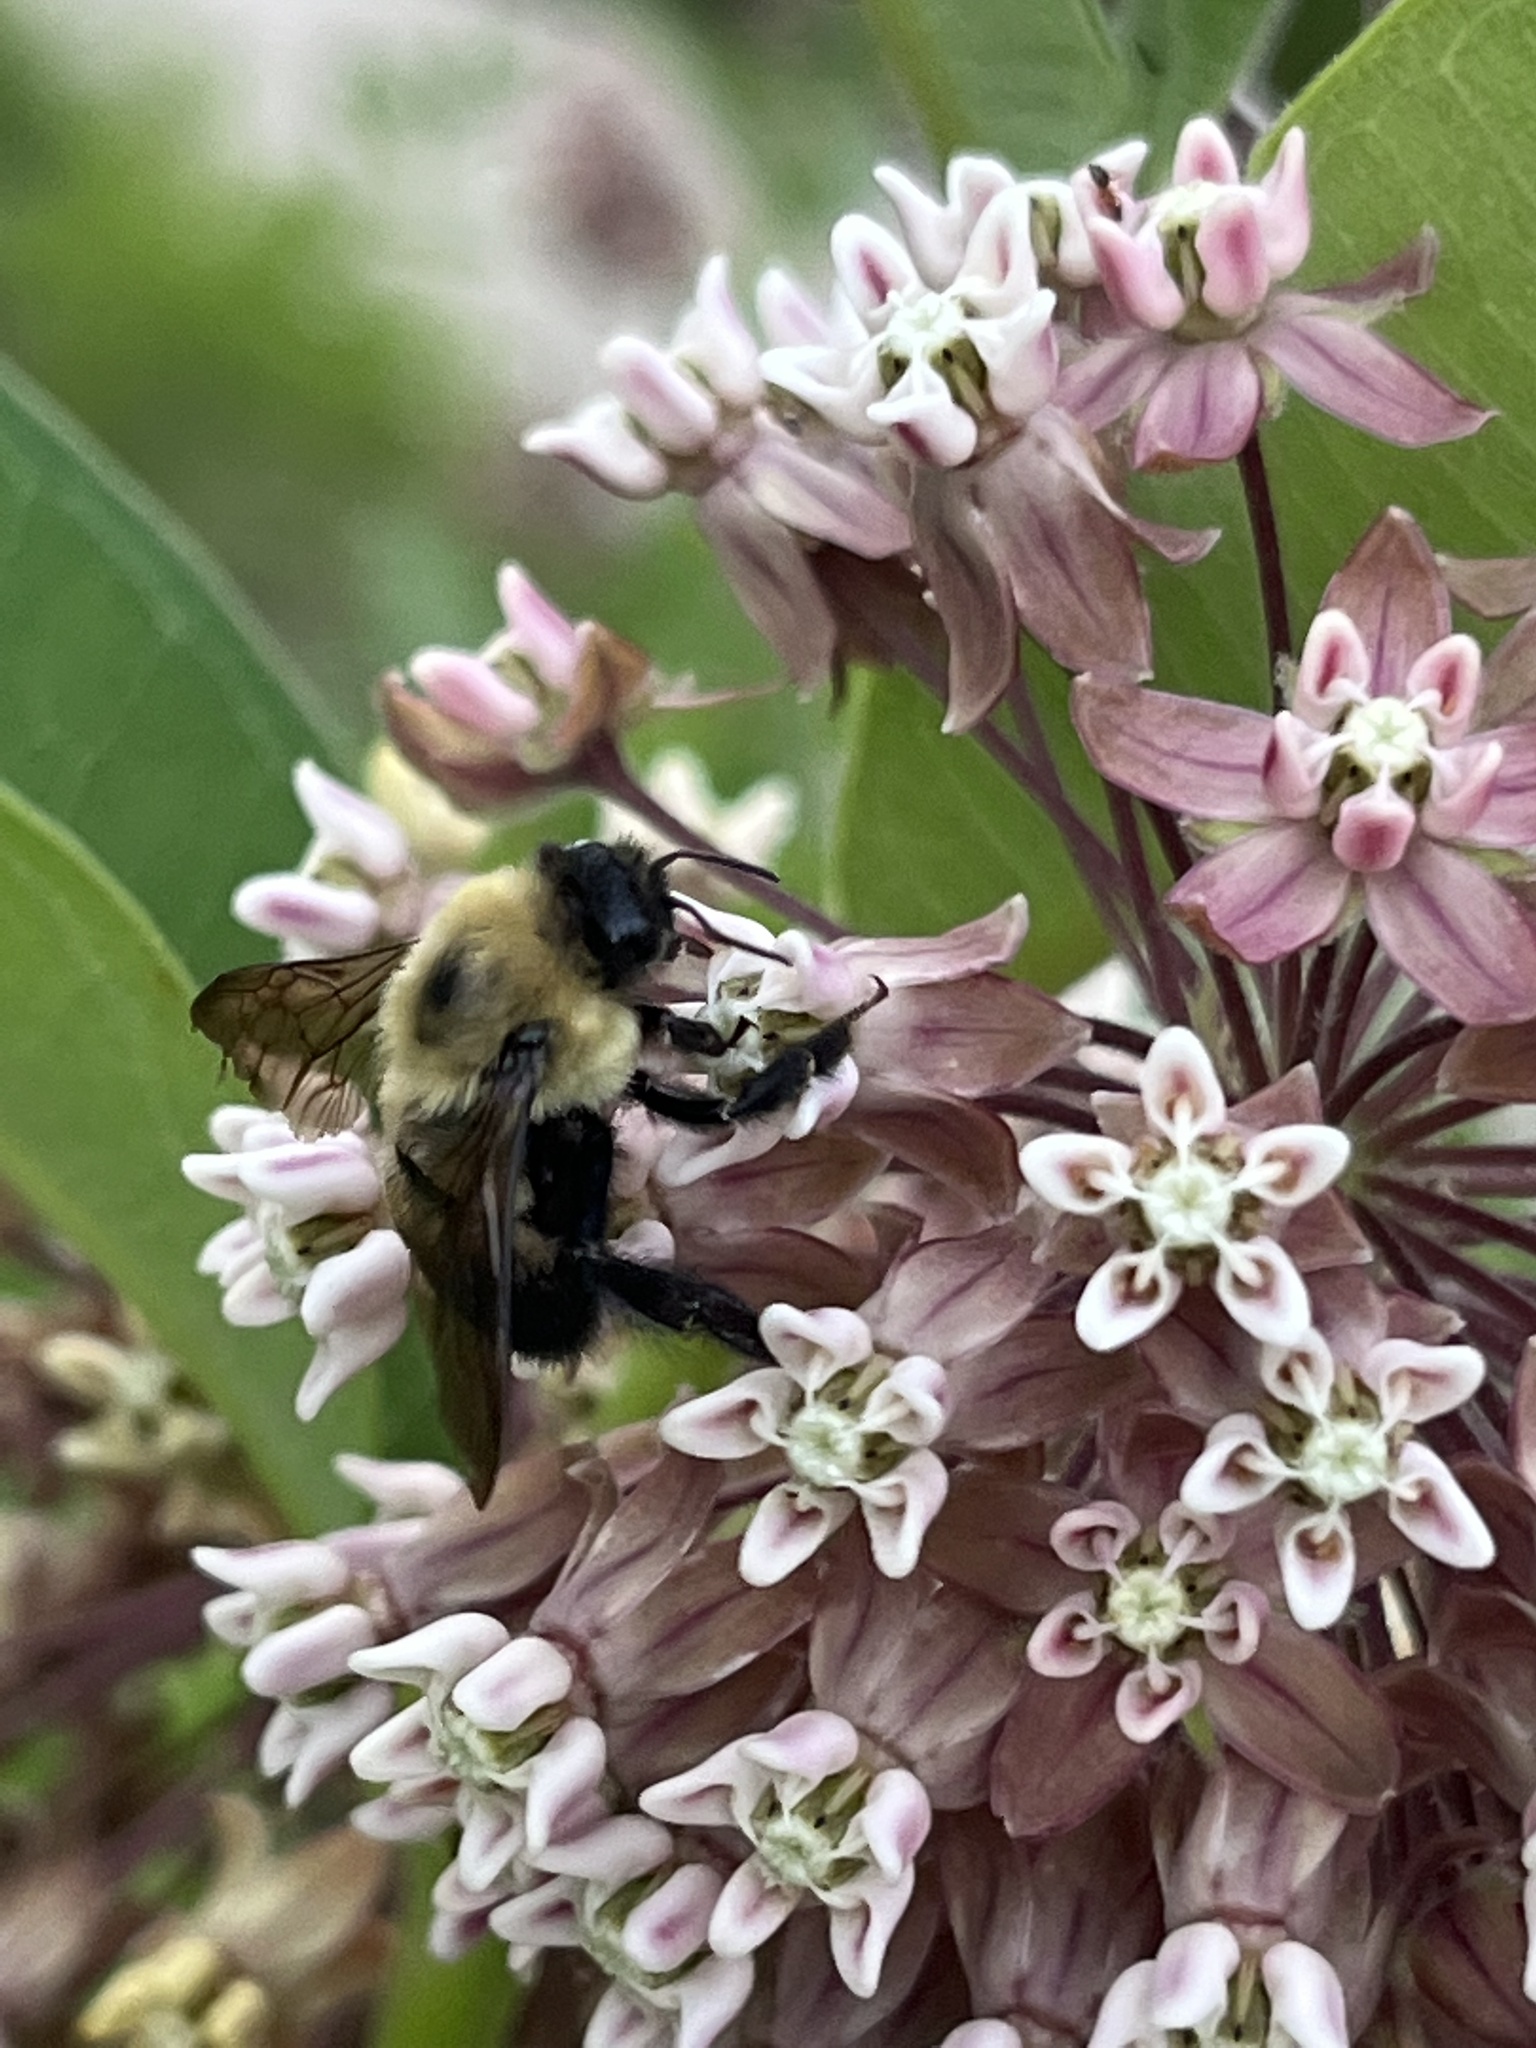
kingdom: Animalia
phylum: Arthropoda
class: Insecta
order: Hymenoptera
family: Apidae
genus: Bombus
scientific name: Bombus griseocollis
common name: Brown-belted bumble bee
